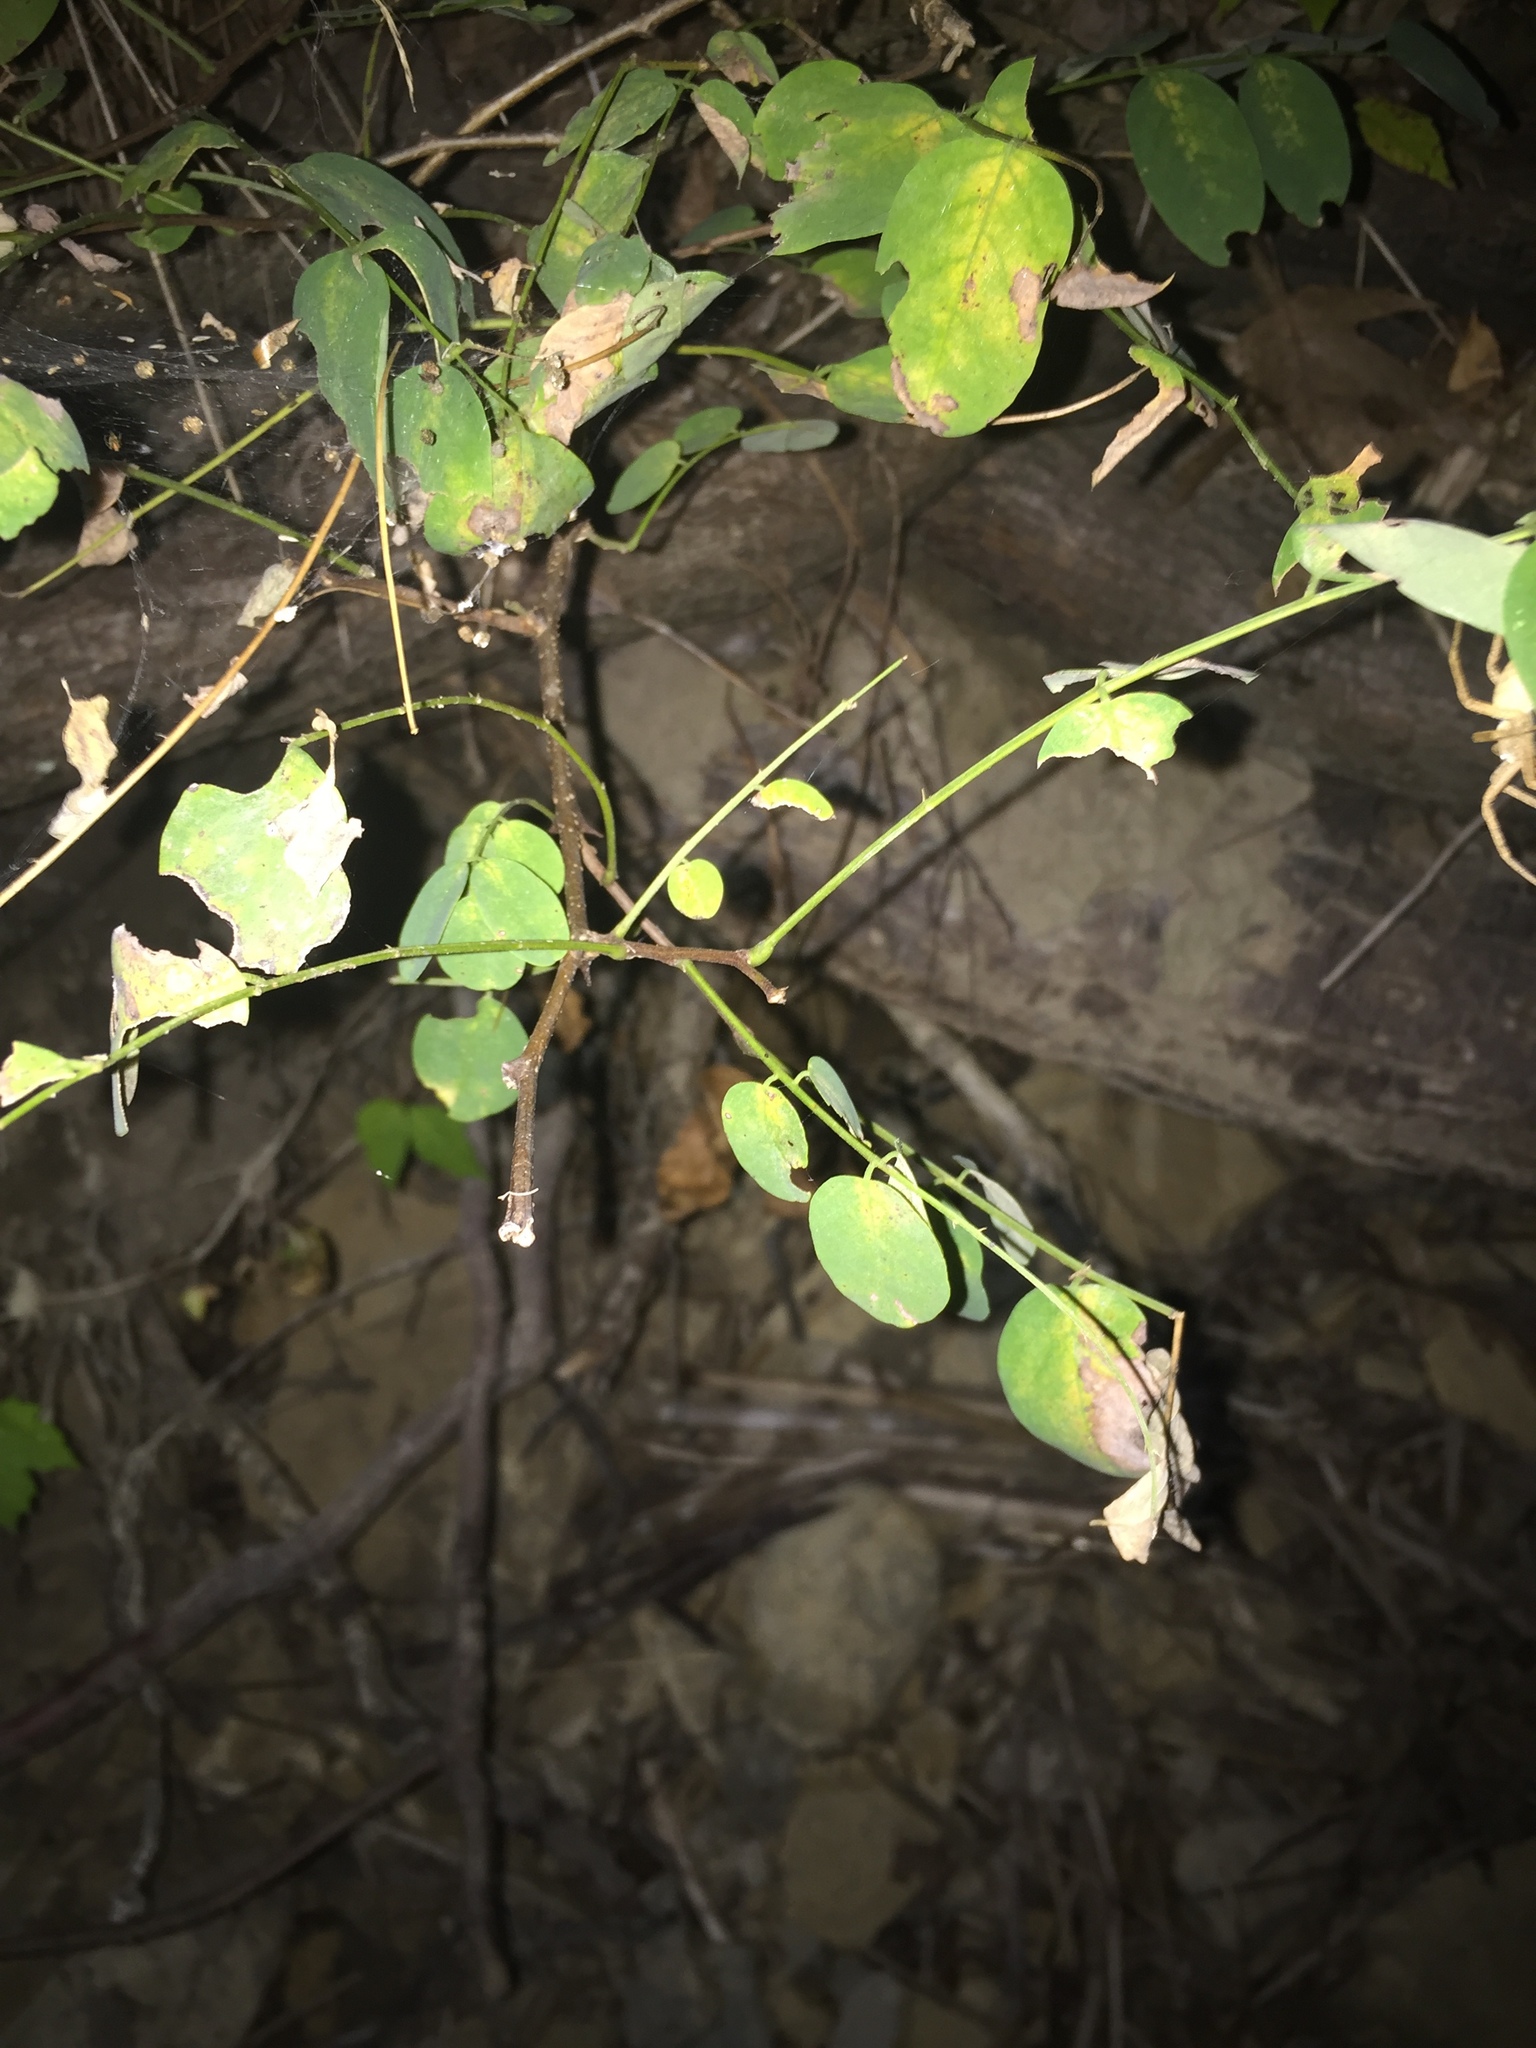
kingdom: Plantae
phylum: Tracheophyta
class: Magnoliopsida
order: Fabales
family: Fabaceae
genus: Robinia
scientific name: Robinia pseudoacacia
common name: Black locust
